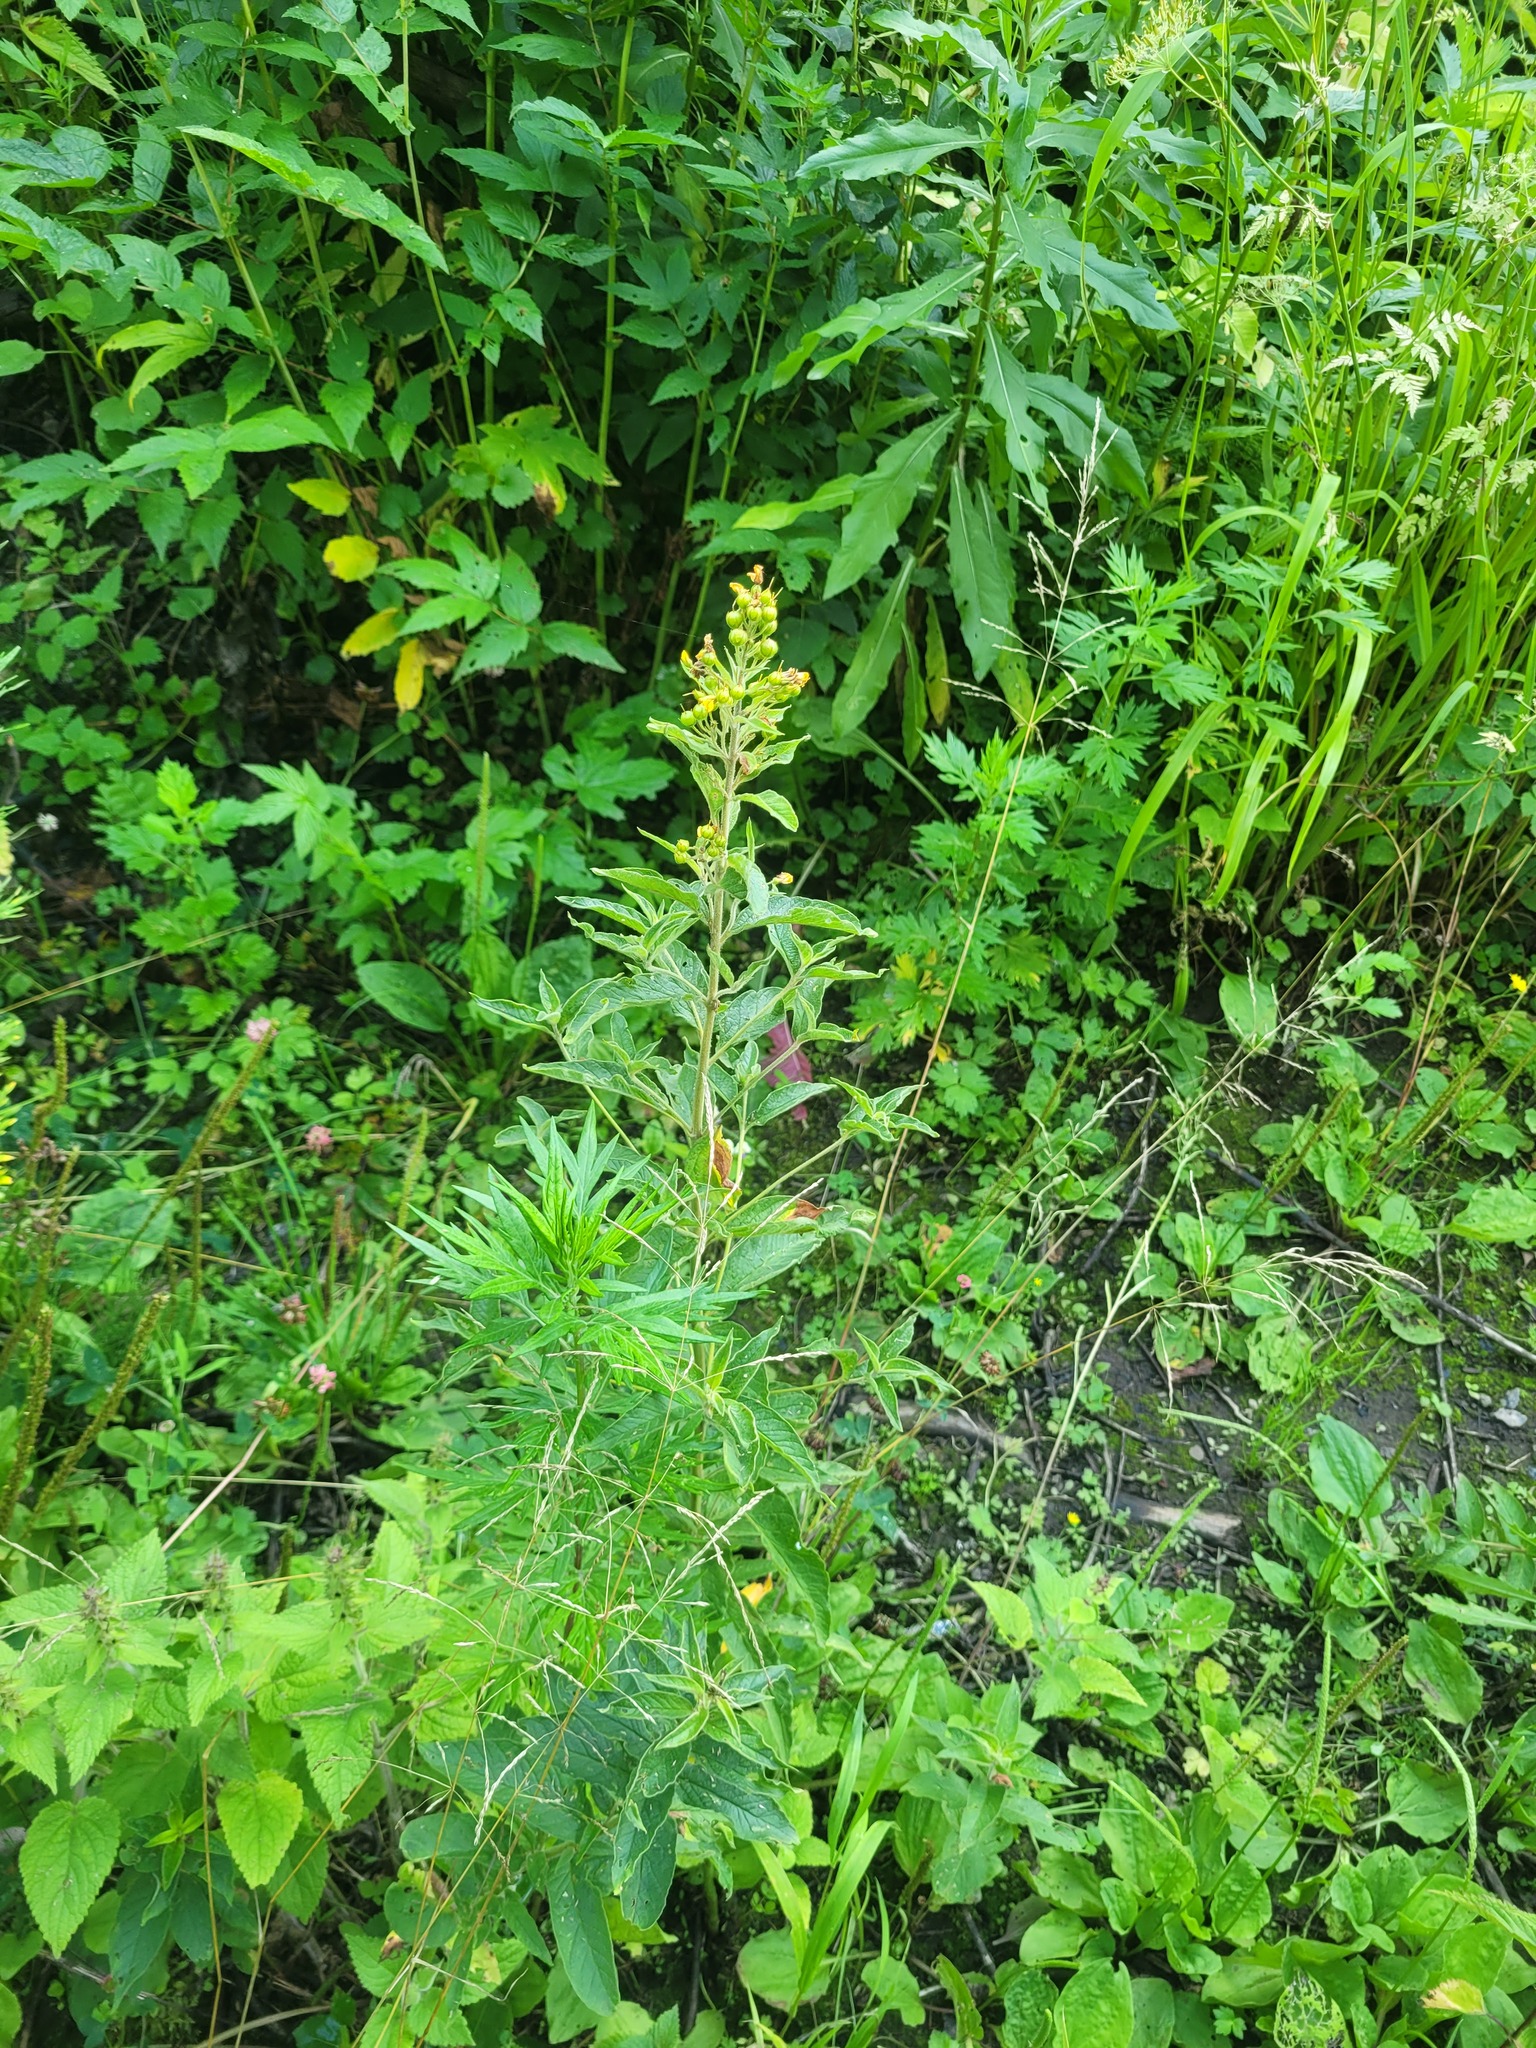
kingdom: Plantae
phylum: Tracheophyta
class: Magnoliopsida
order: Ericales
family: Primulaceae
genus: Lysimachia
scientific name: Lysimachia vulgaris
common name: Yellow loosestrife
